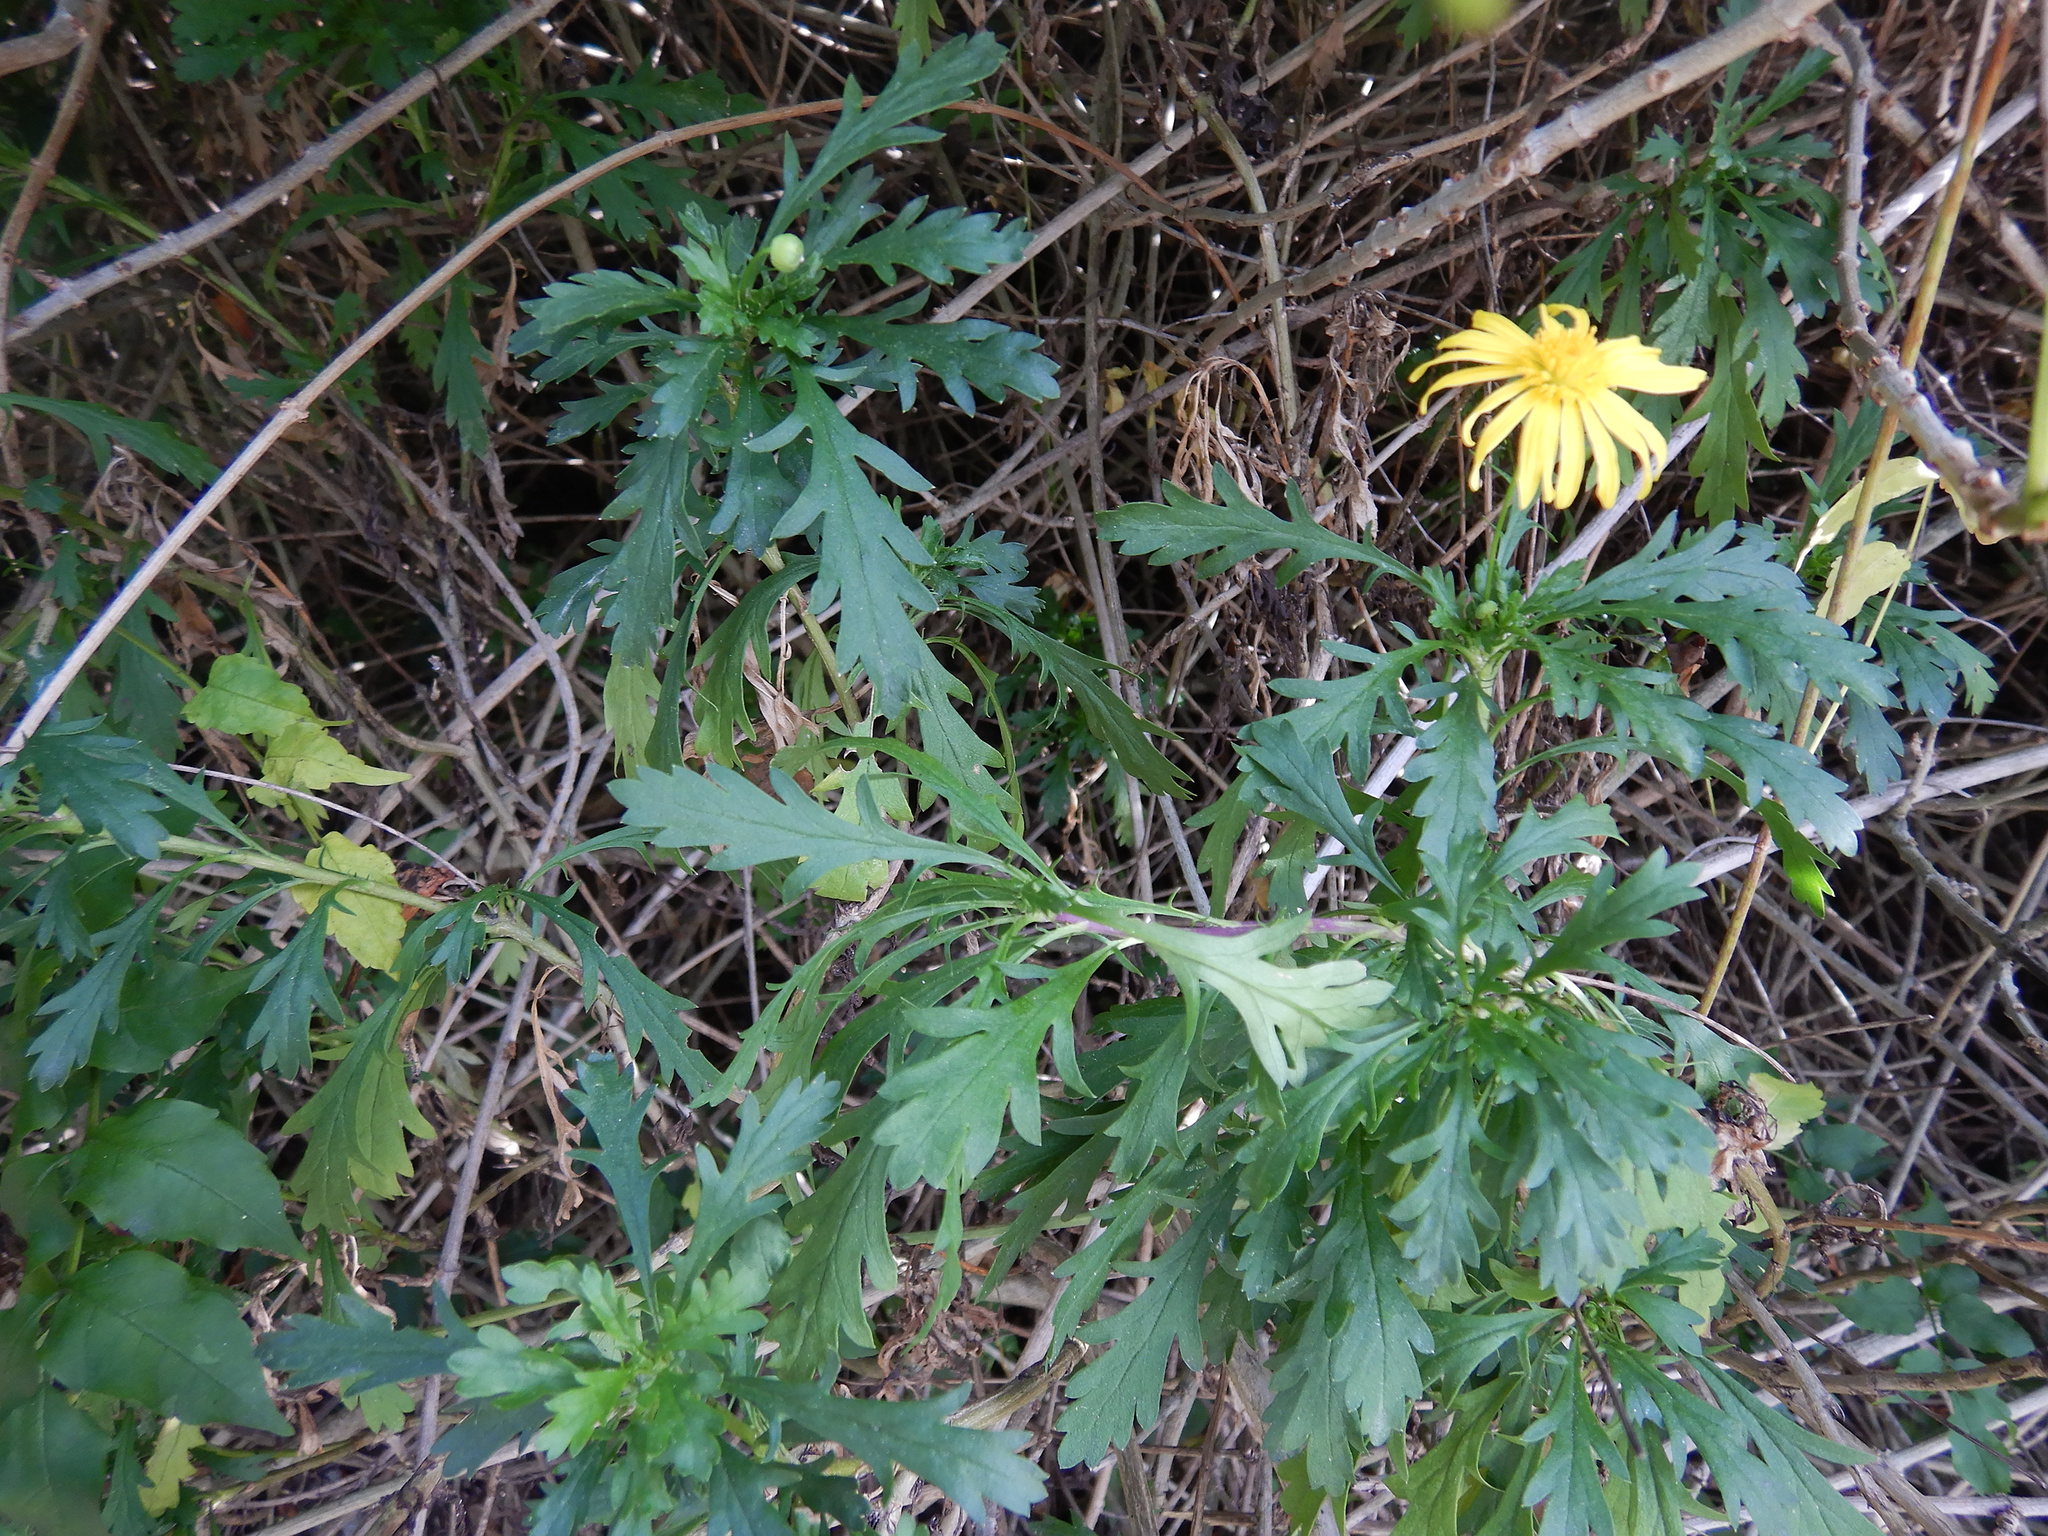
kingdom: Plantae
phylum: Tracheophyta
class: Magnoliopsida
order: Asterales
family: Asteraceae
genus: Euryops
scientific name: Euryops chrysanthemoides
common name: Bull's eye
